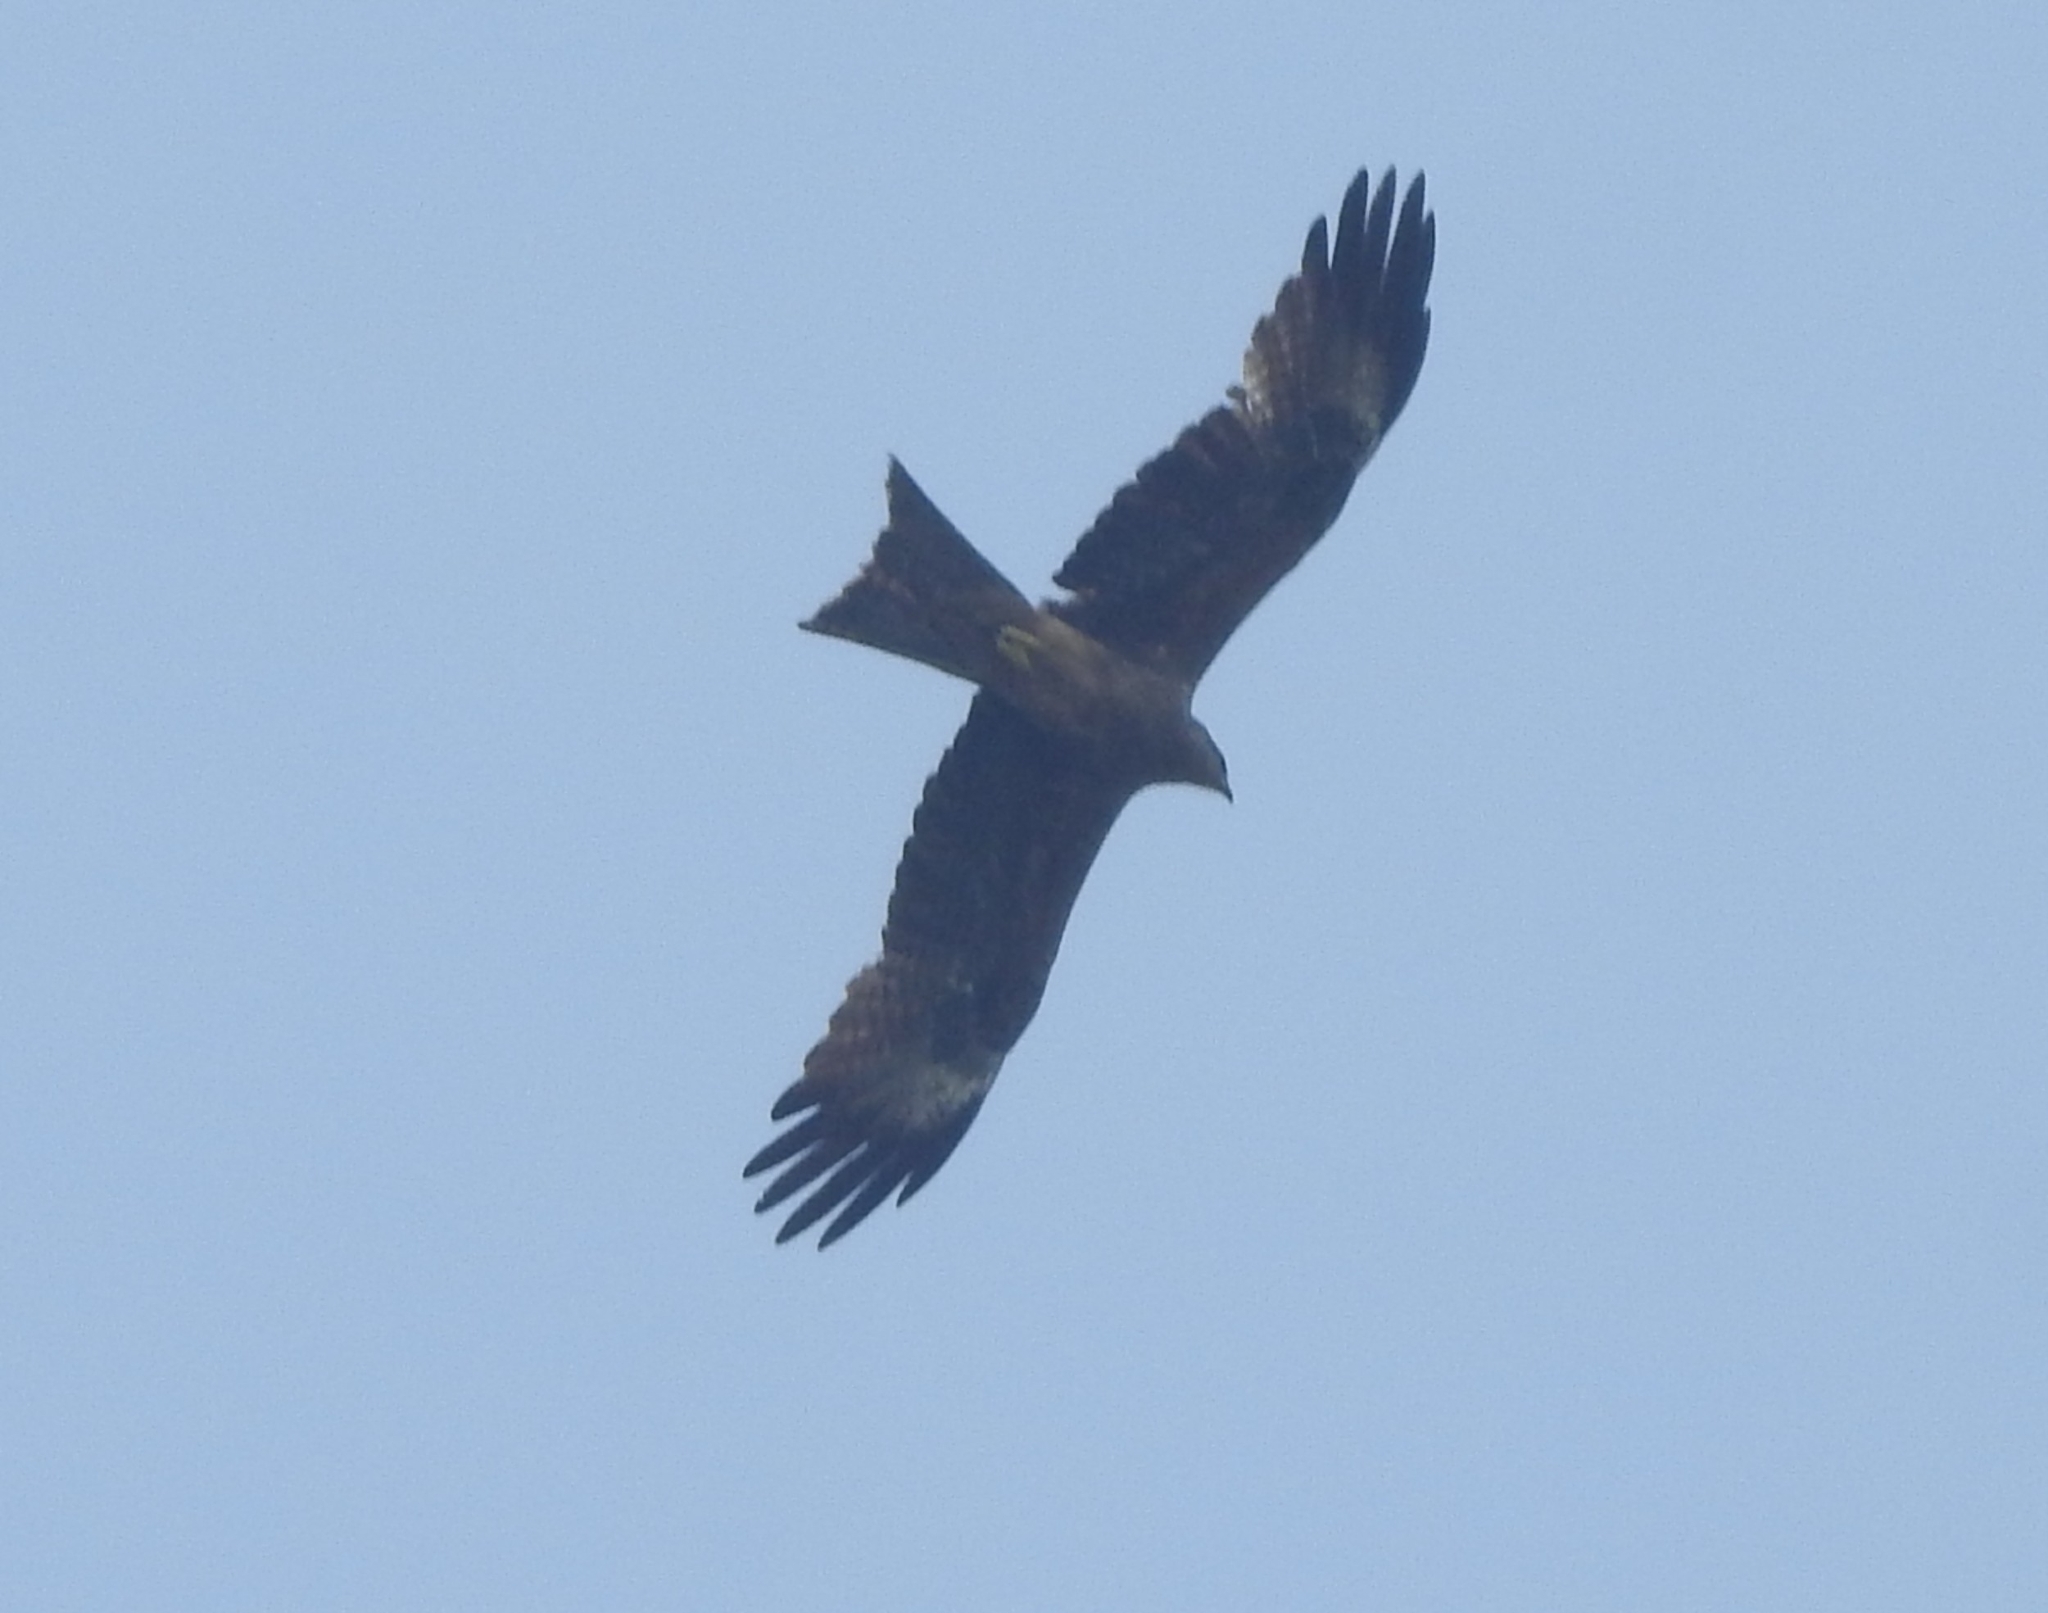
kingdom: Animalia
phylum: Chordata
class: Aves
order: Accipitriformes
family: Accipitridae
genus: Milvus
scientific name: Milvus migrans
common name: Black kite
